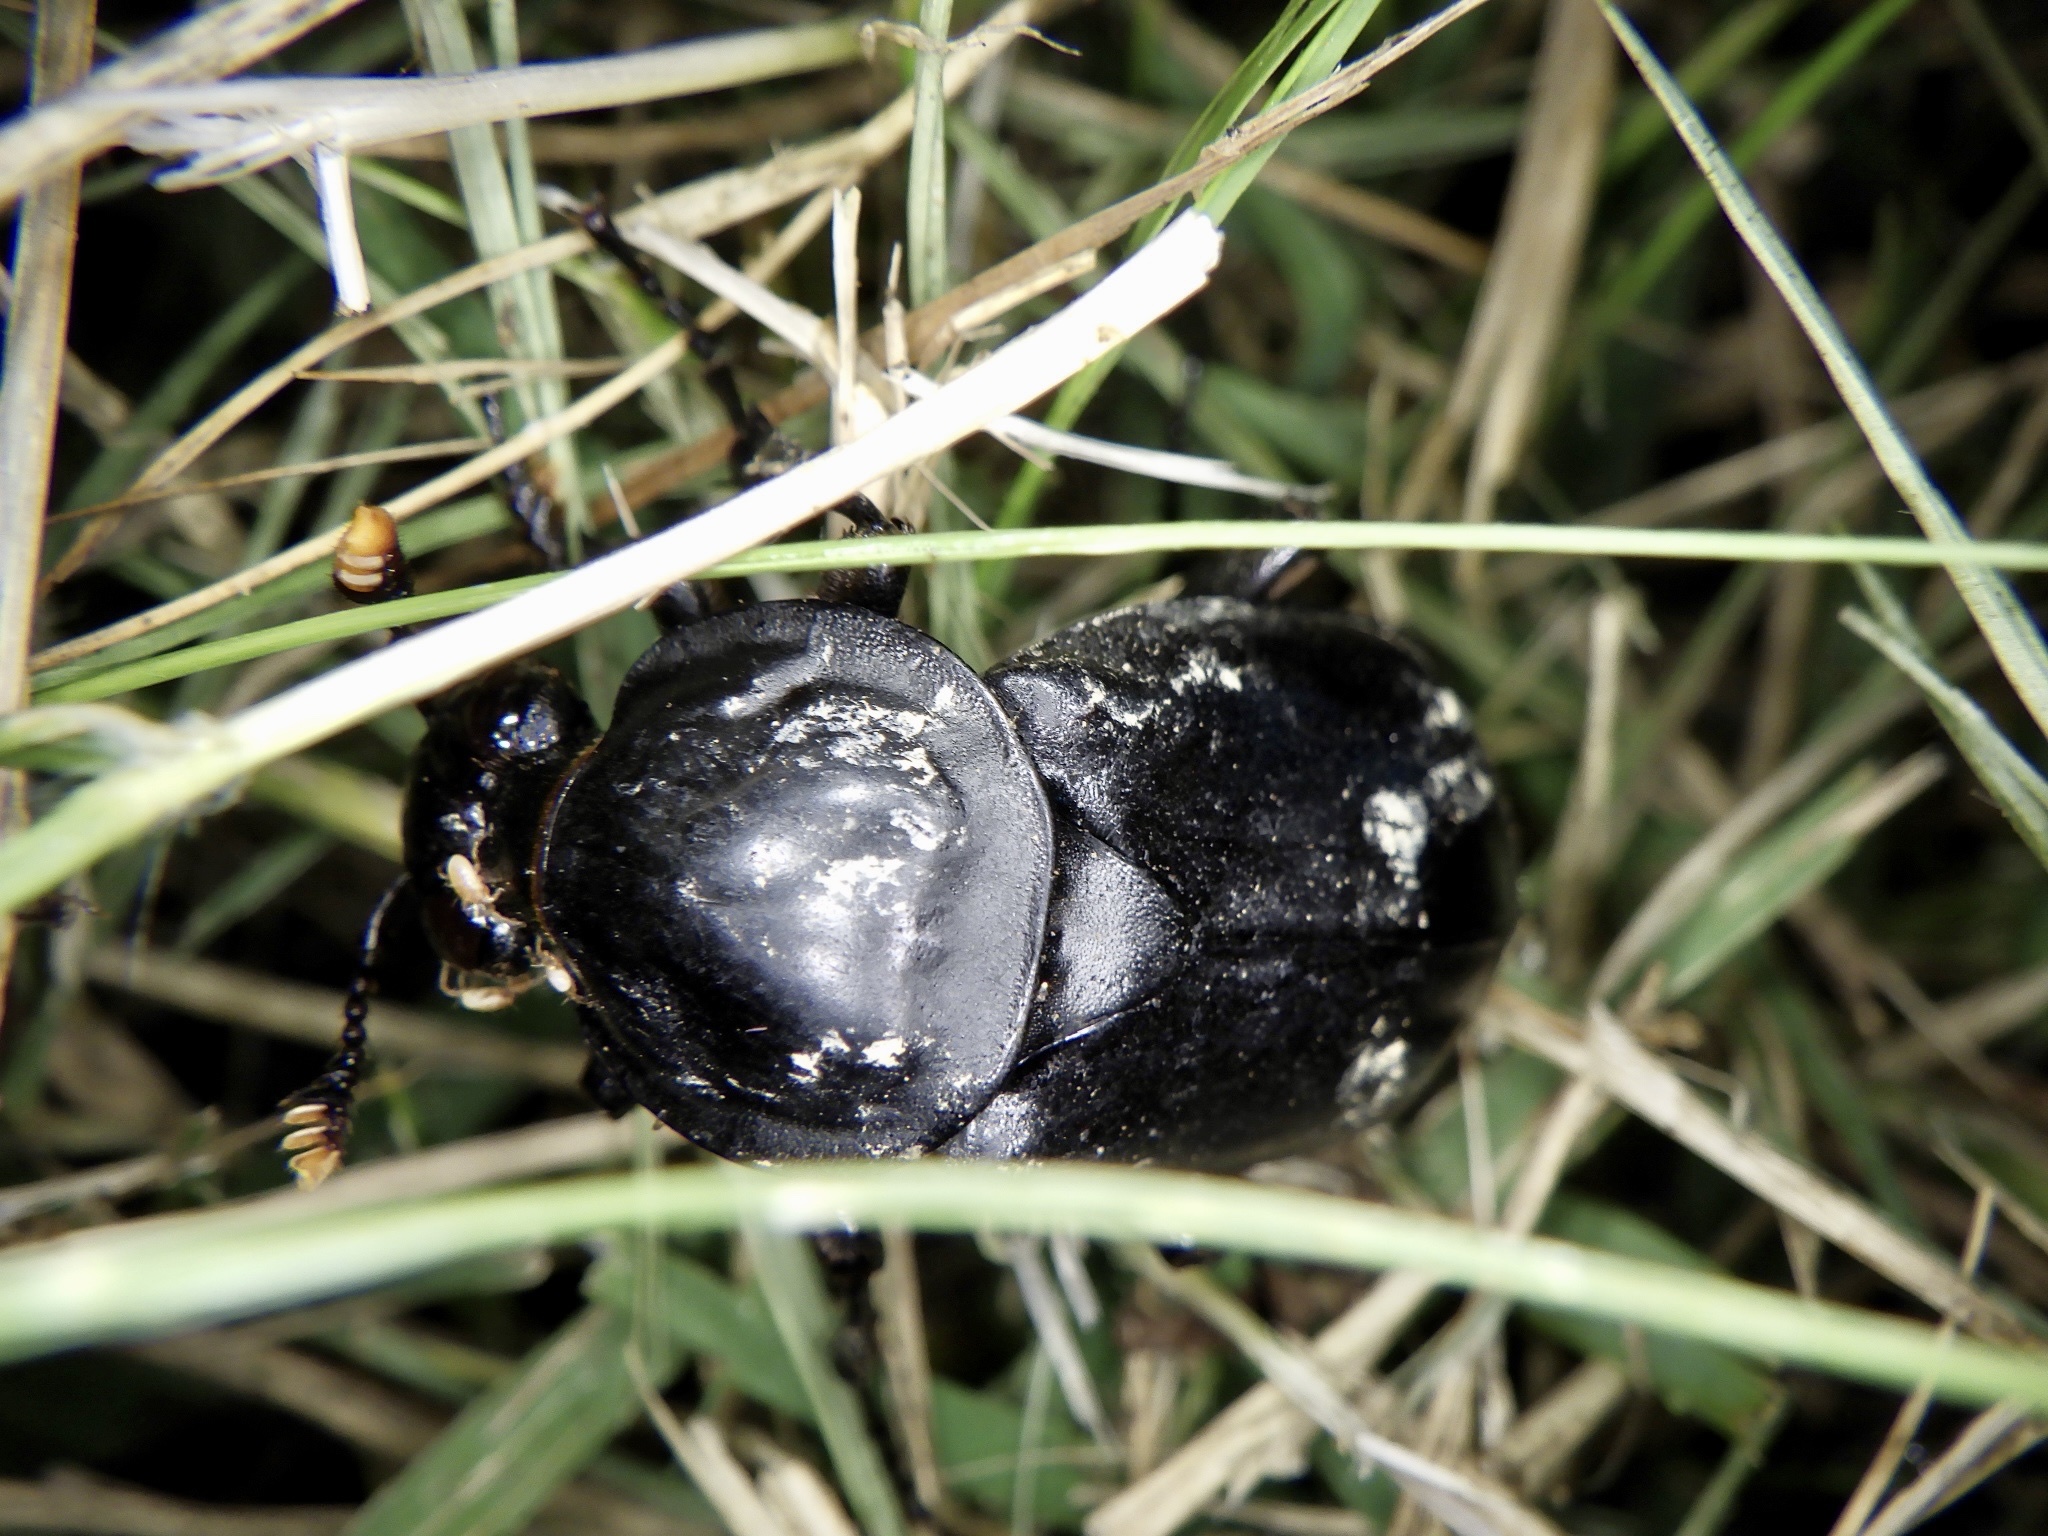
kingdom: Animalia
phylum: Arthropoda
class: Insecta
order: Coleoptera
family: Staphylinidae
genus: Nicrophorus
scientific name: Nicrophorus concolor
